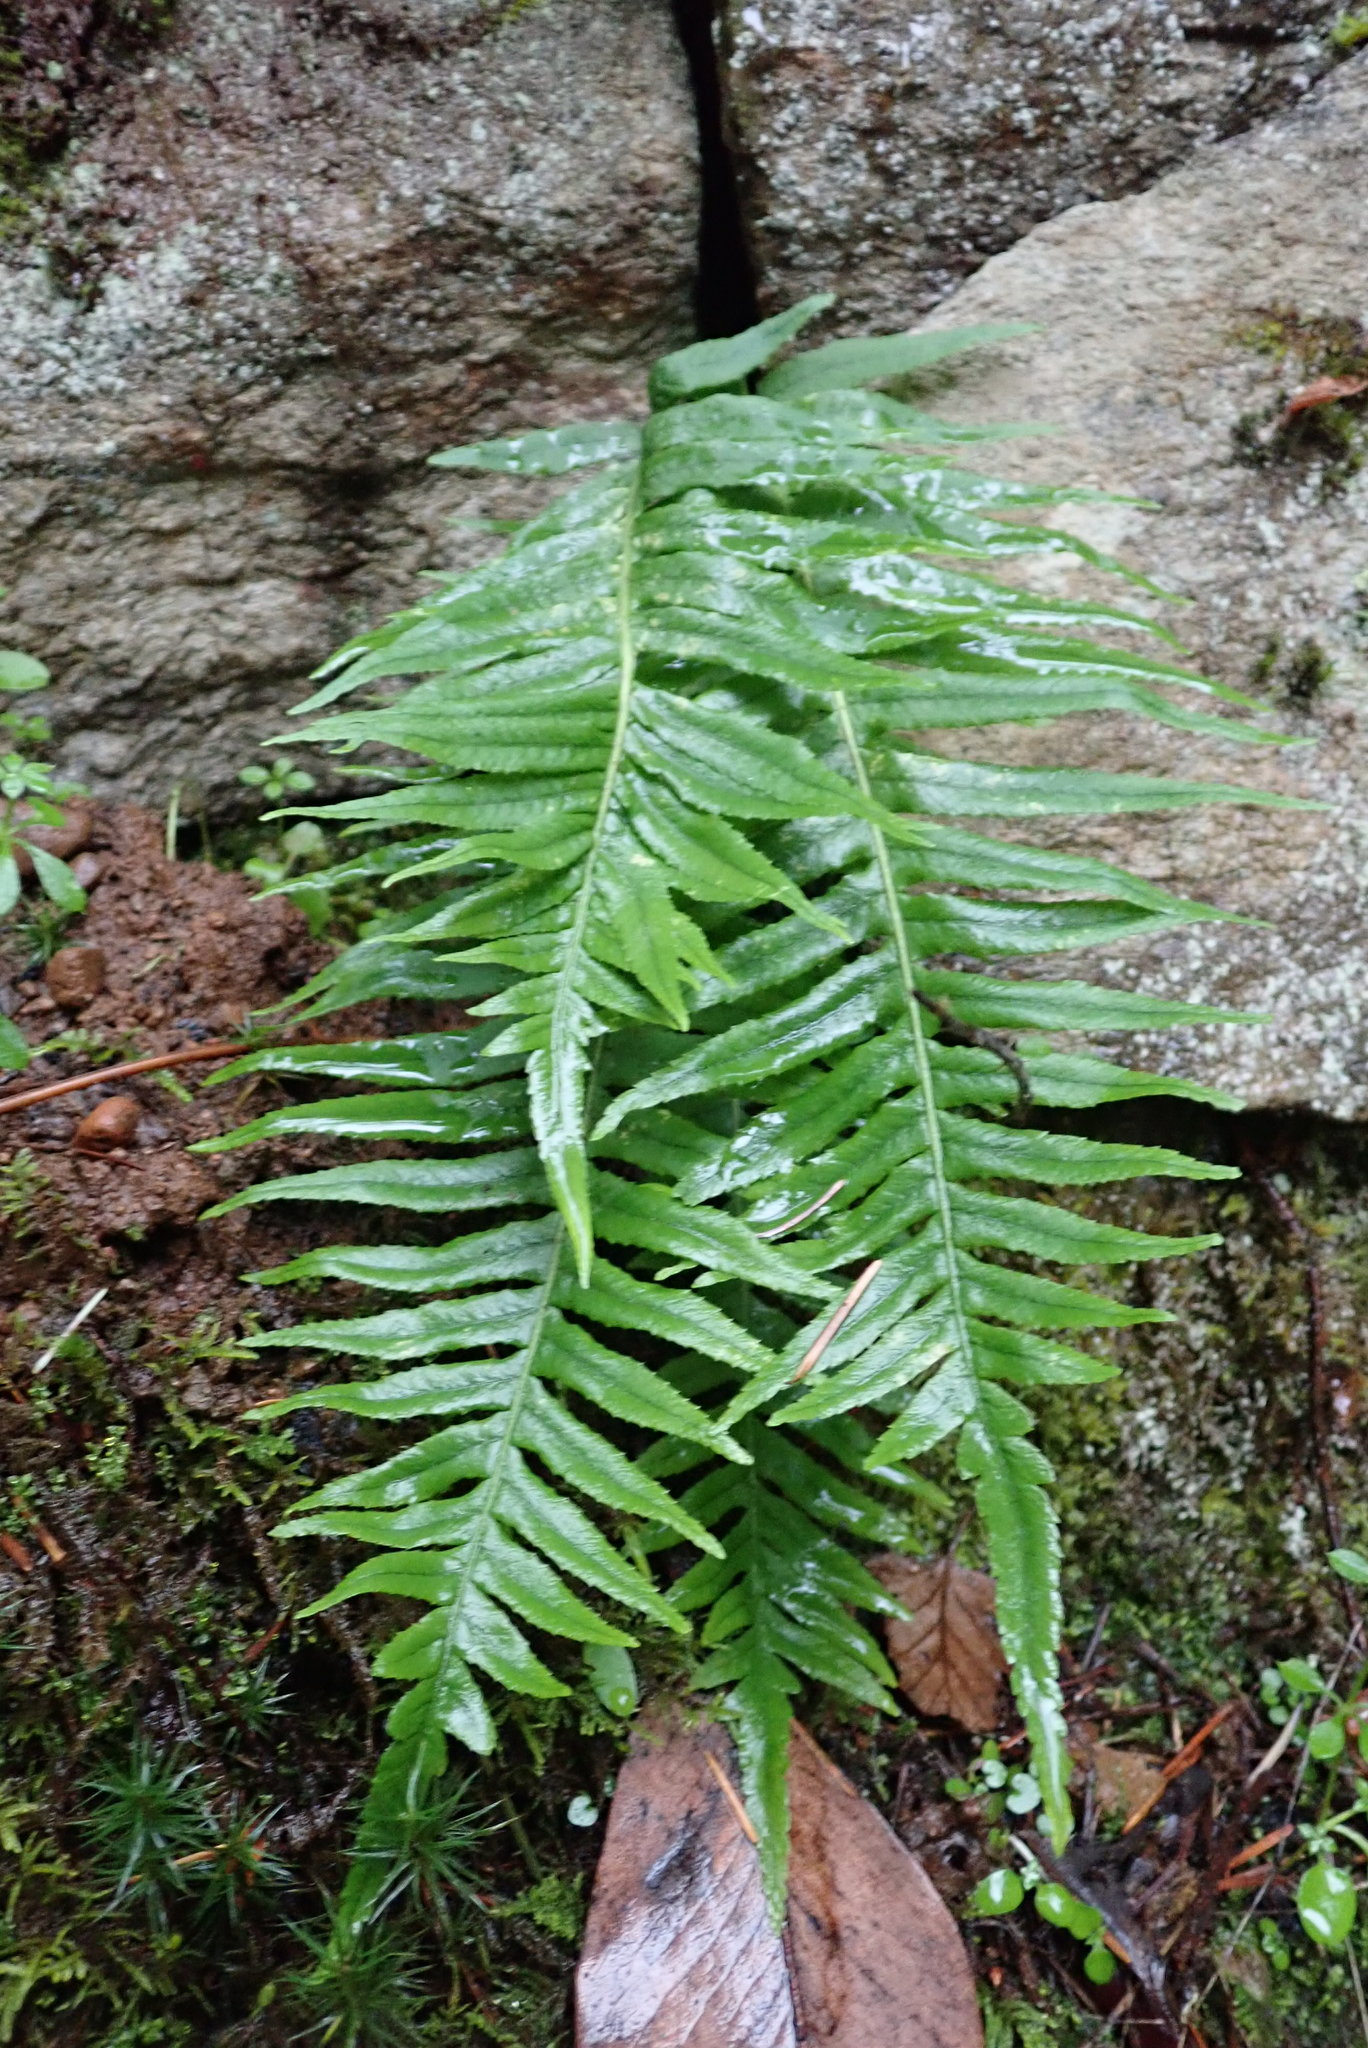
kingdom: Plantae
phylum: Tracheophyta
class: Polypodiopsida
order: Polypodiales
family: Polypodiaceae
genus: Polypodium
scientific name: Polypodium glycyrrhiza
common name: Licorice fern
